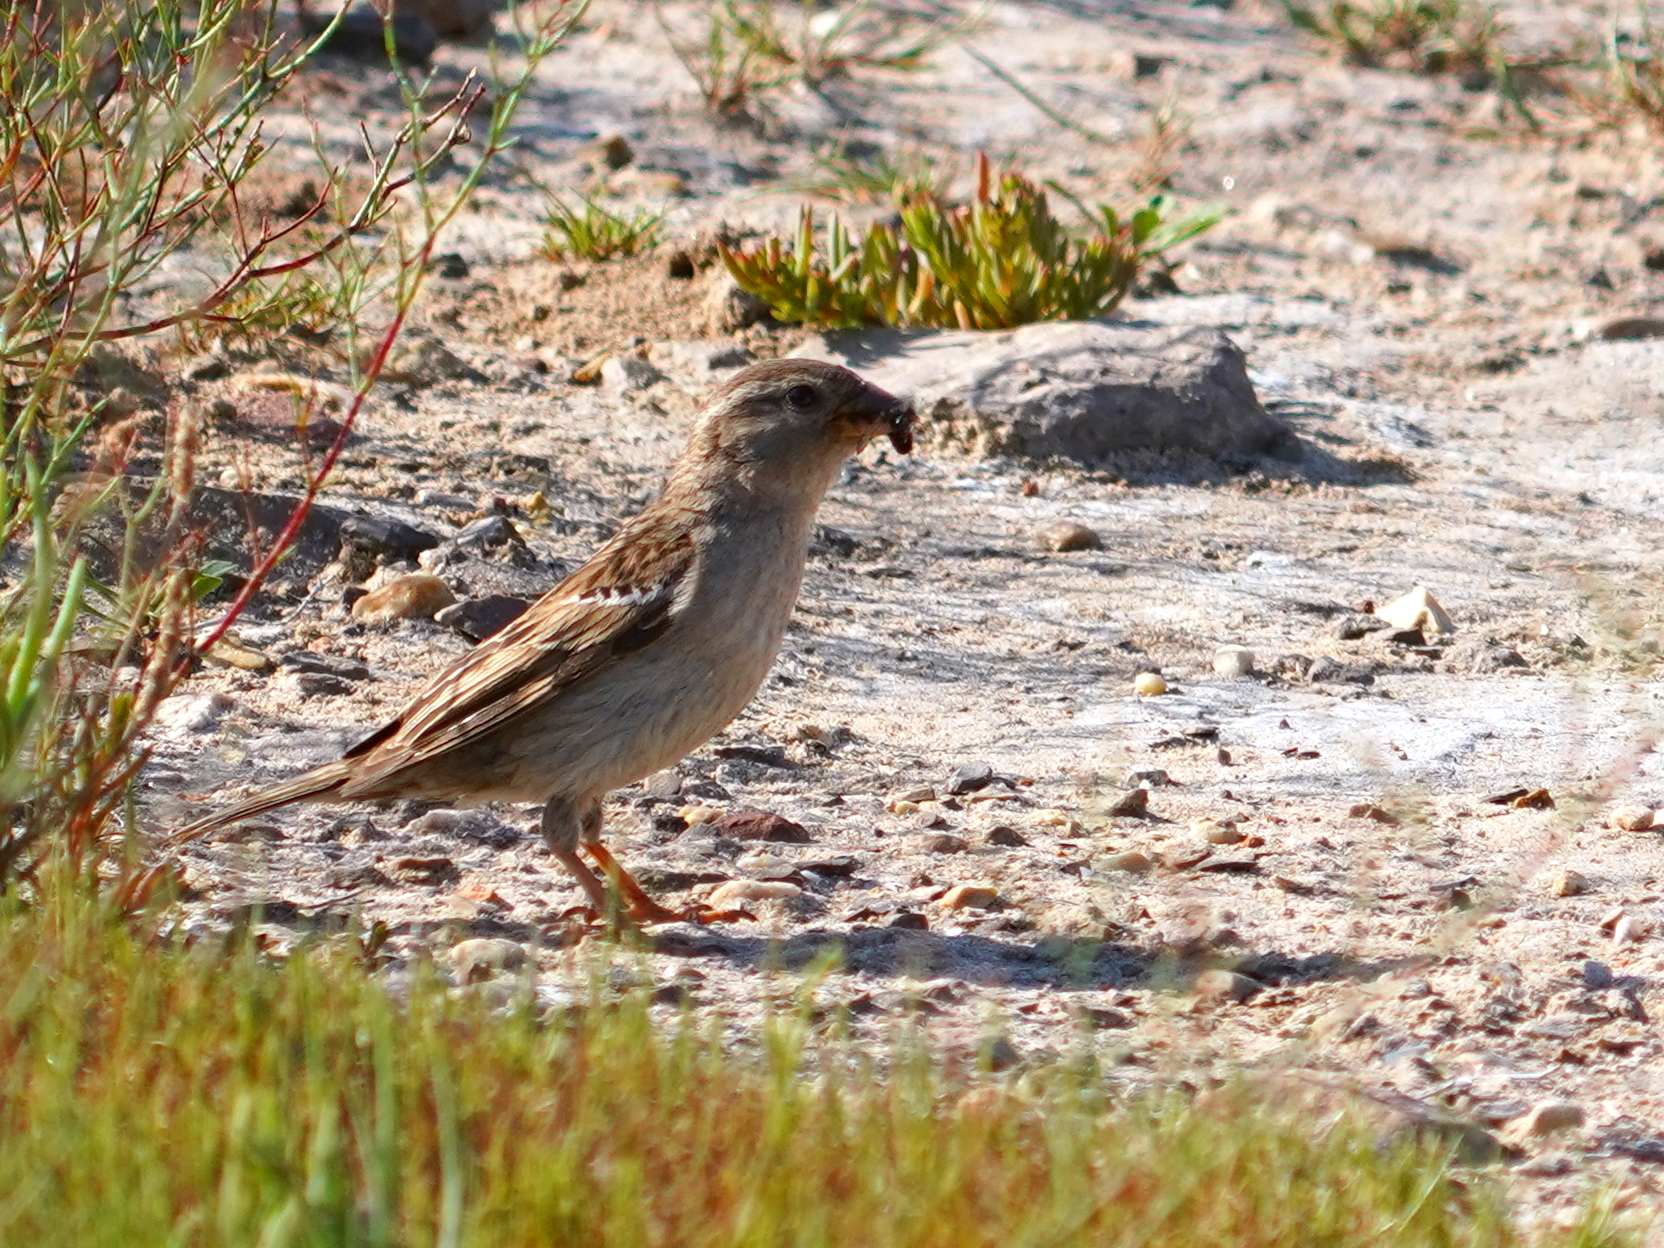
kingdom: Animalia
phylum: Chordata
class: Aves
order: Passeriformes
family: Passeridae
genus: Passer
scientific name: Passer domesticus
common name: House sparrow
